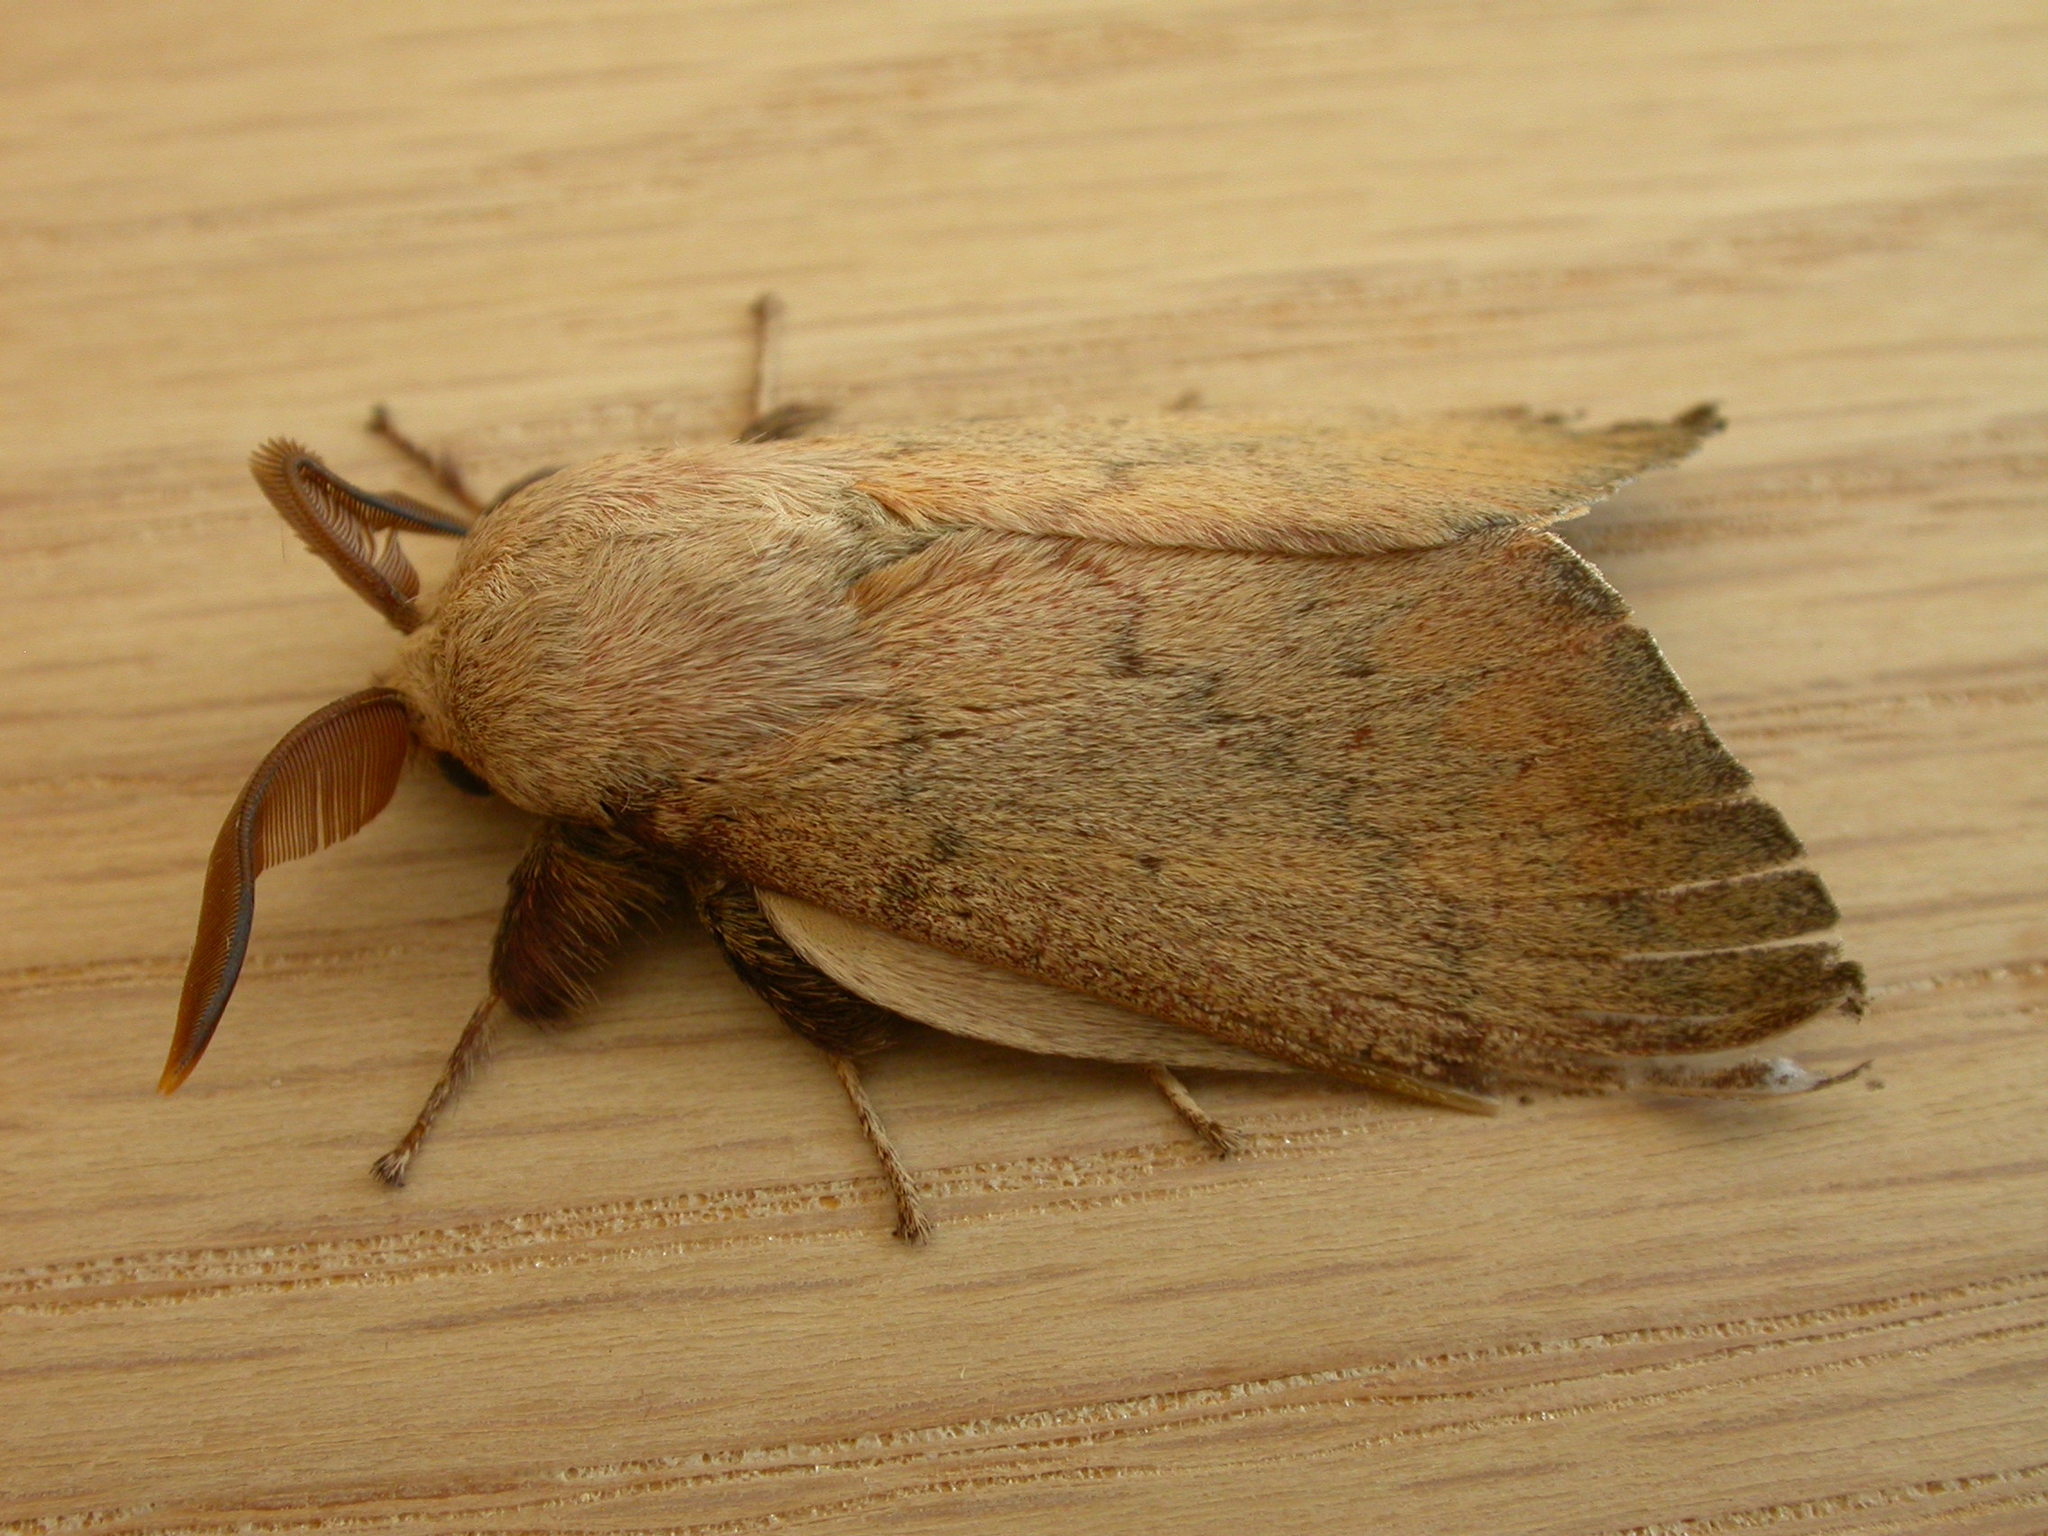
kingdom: Animalia
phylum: Arthropoda
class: Insecta
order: Lepidoptera
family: Lasiocampidae
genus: Entometa
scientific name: Entometa apicalis
